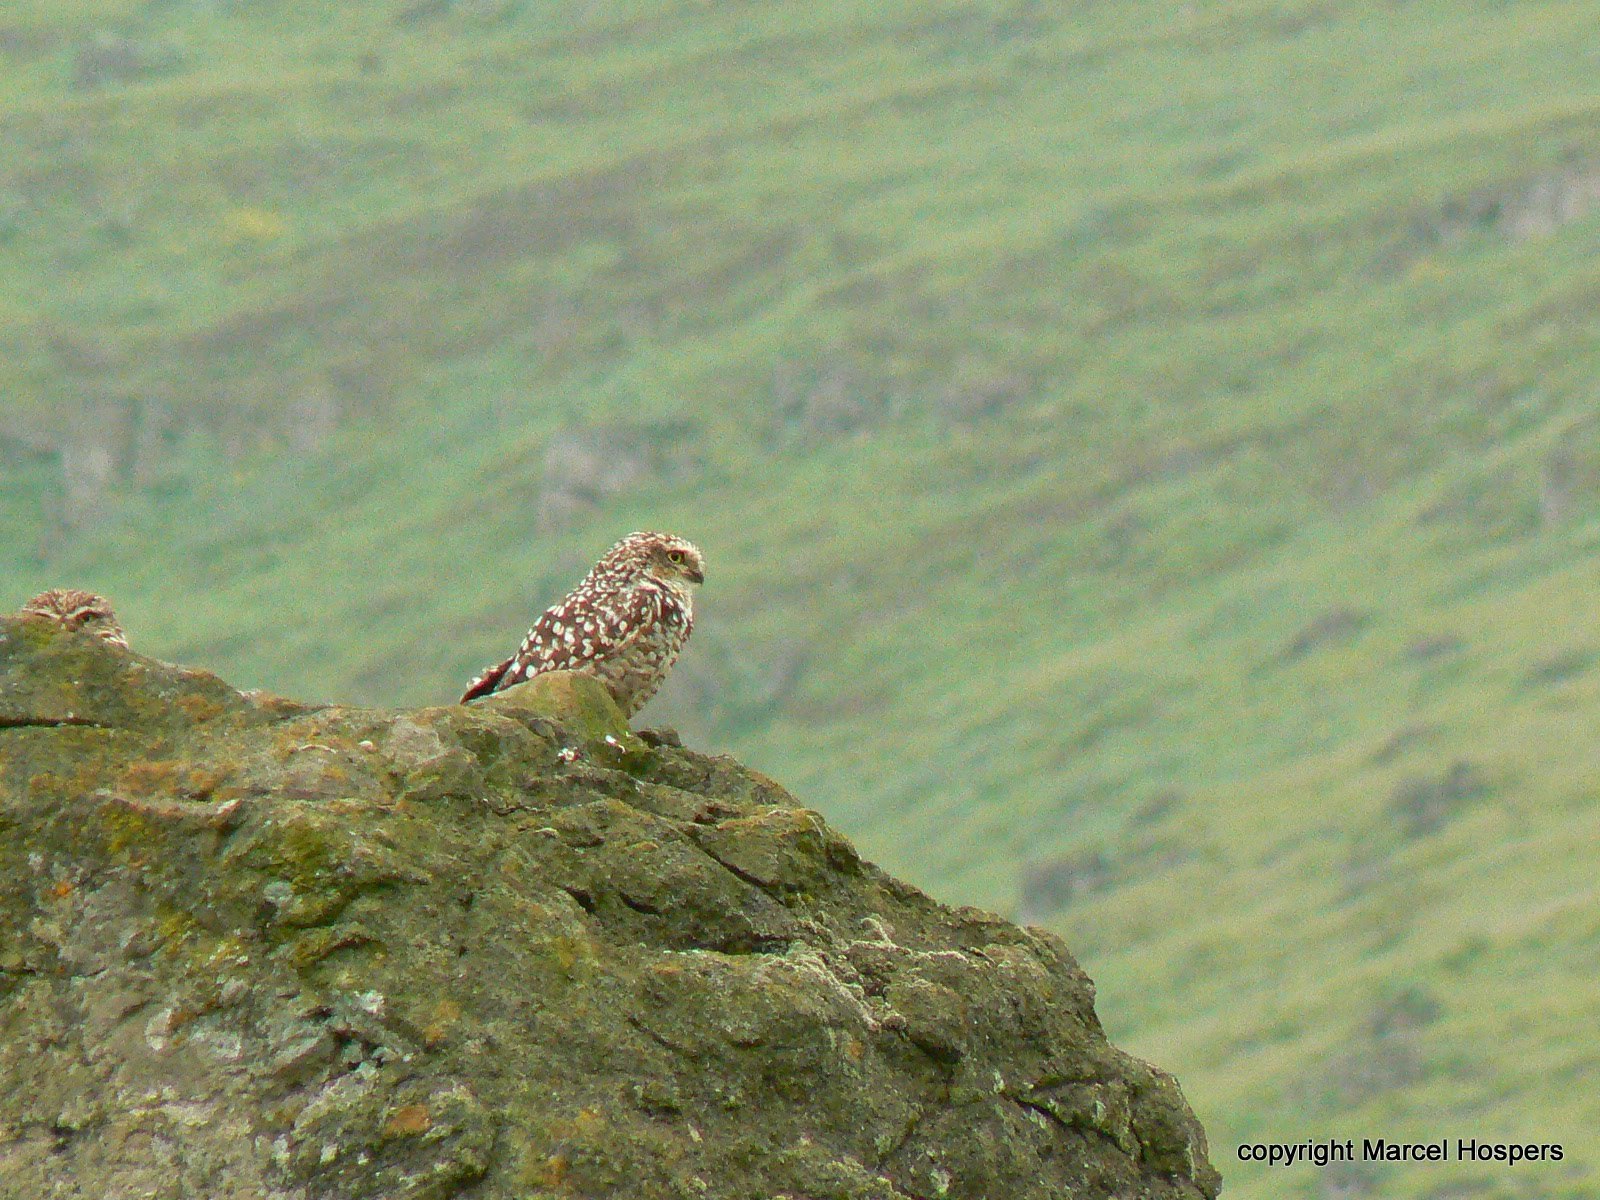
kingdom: Animalia
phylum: Chordata
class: Aves
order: Strigiformes
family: Strigidae
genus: Athene
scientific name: Athene cunicularia
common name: Burrowing owl
